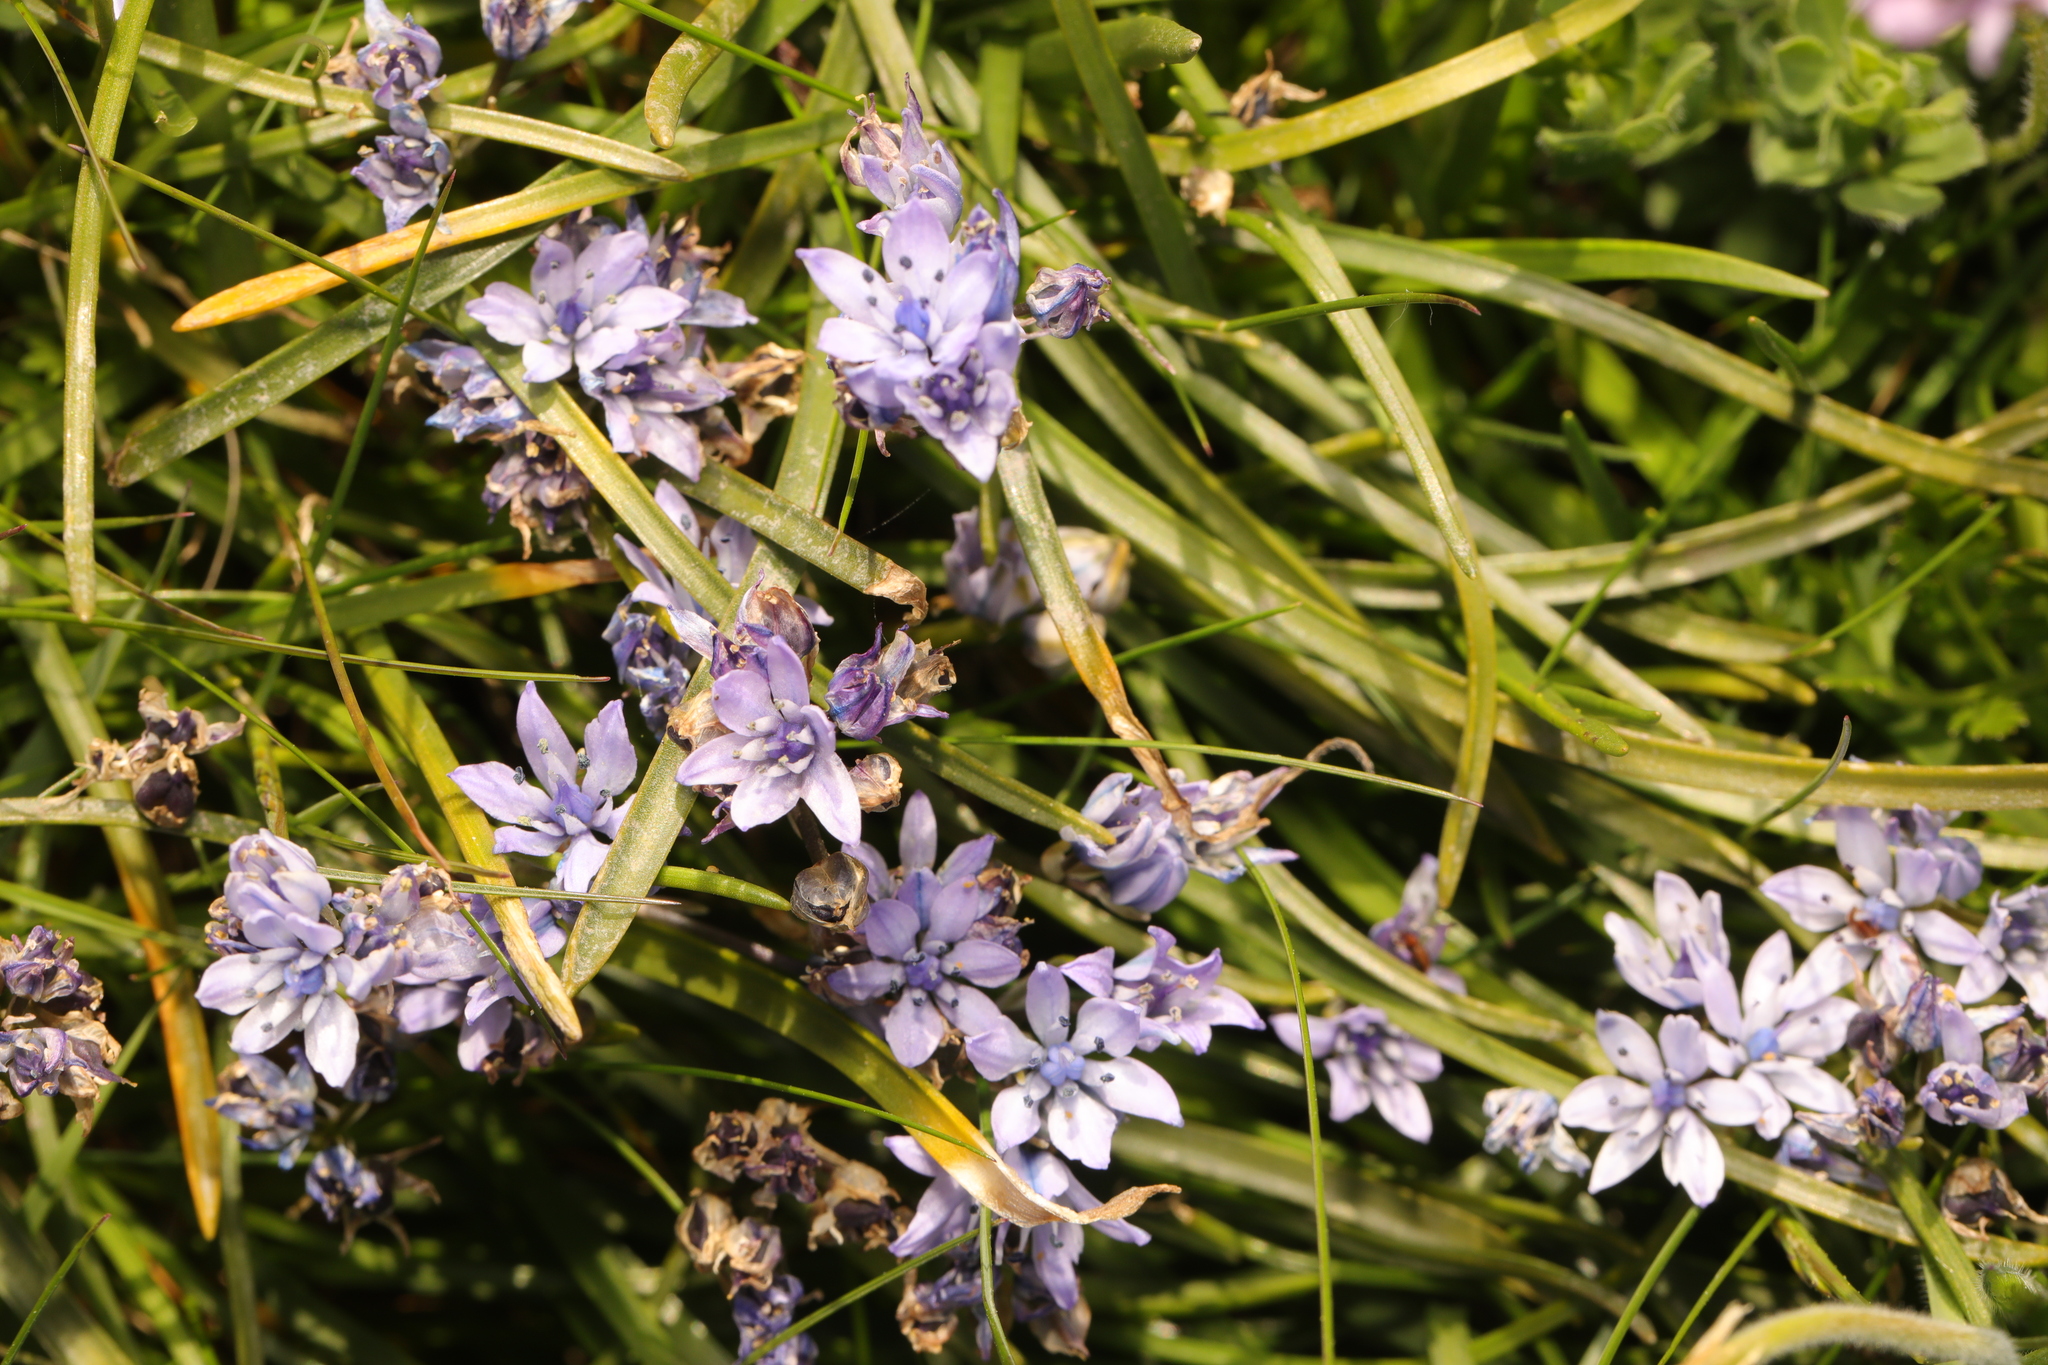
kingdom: Plantae
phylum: Tracheophyta
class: Liliopsida
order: Asparagales
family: Asparagaceae
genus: Scilla
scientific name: Scilla verna
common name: Spring squill
